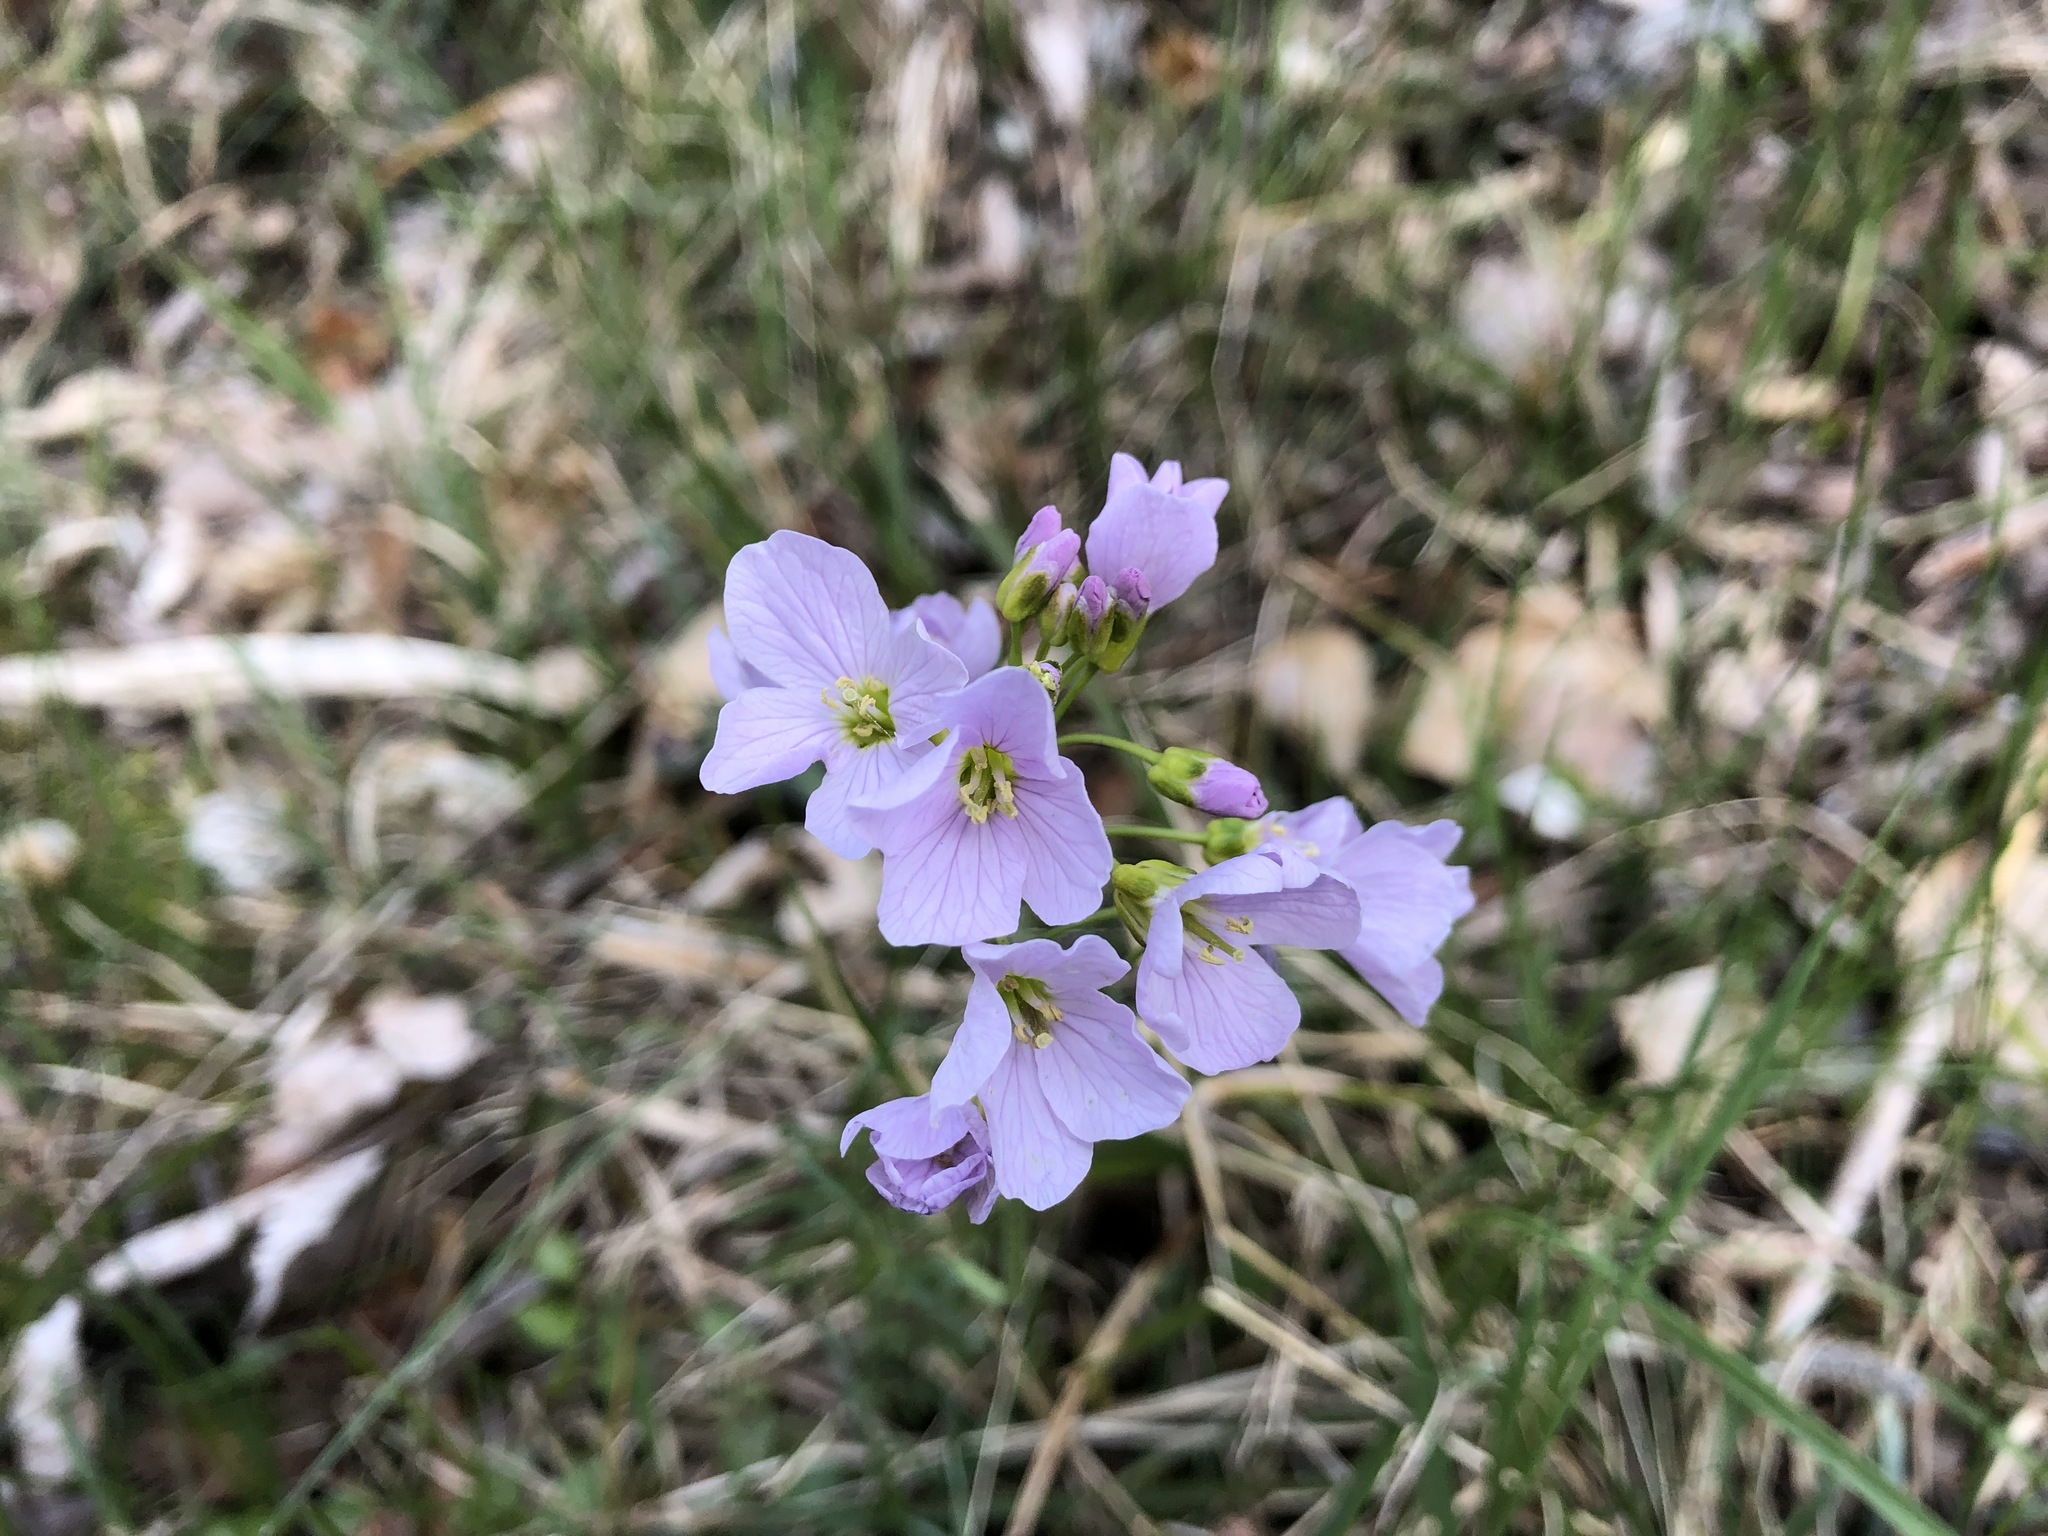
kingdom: Plantae
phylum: Tracheophyta
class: Magnoliopsida
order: Brassicales
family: Brassicaceae
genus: Cardamine
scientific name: Cardamine pratensis
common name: Cuckoo flower
